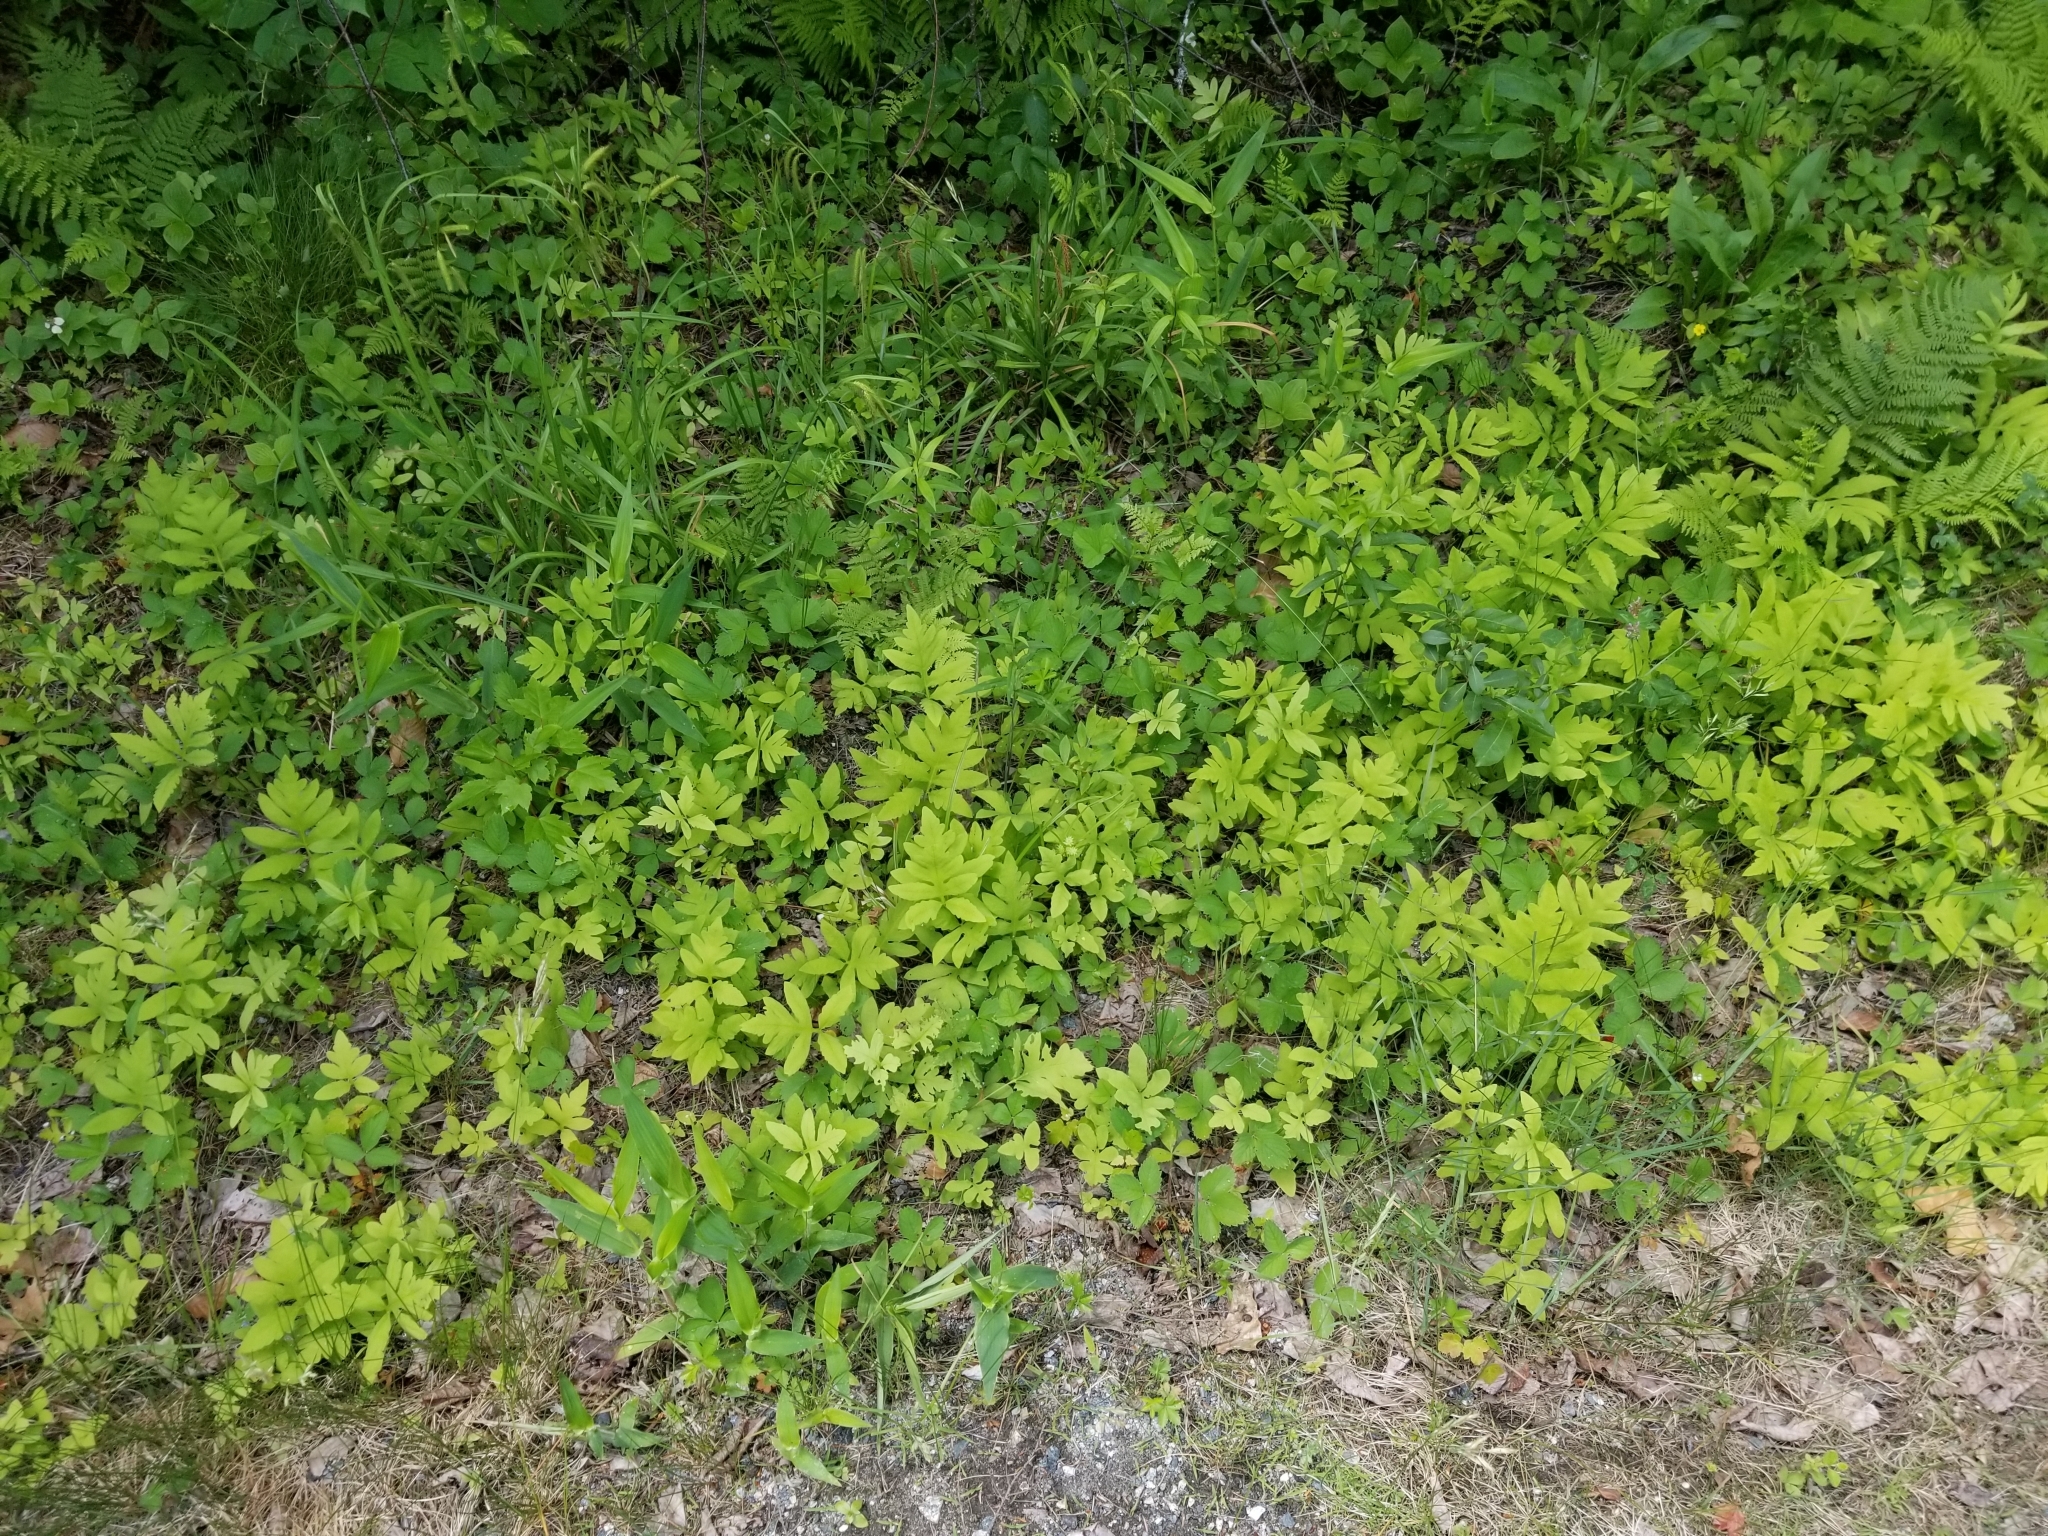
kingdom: Plantae
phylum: Tracheophyta
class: Polypodiopsida
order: Polypodiales
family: Onocleaceae
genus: Onoclea
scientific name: Onoclea sensibilis
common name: Sensitive fern
